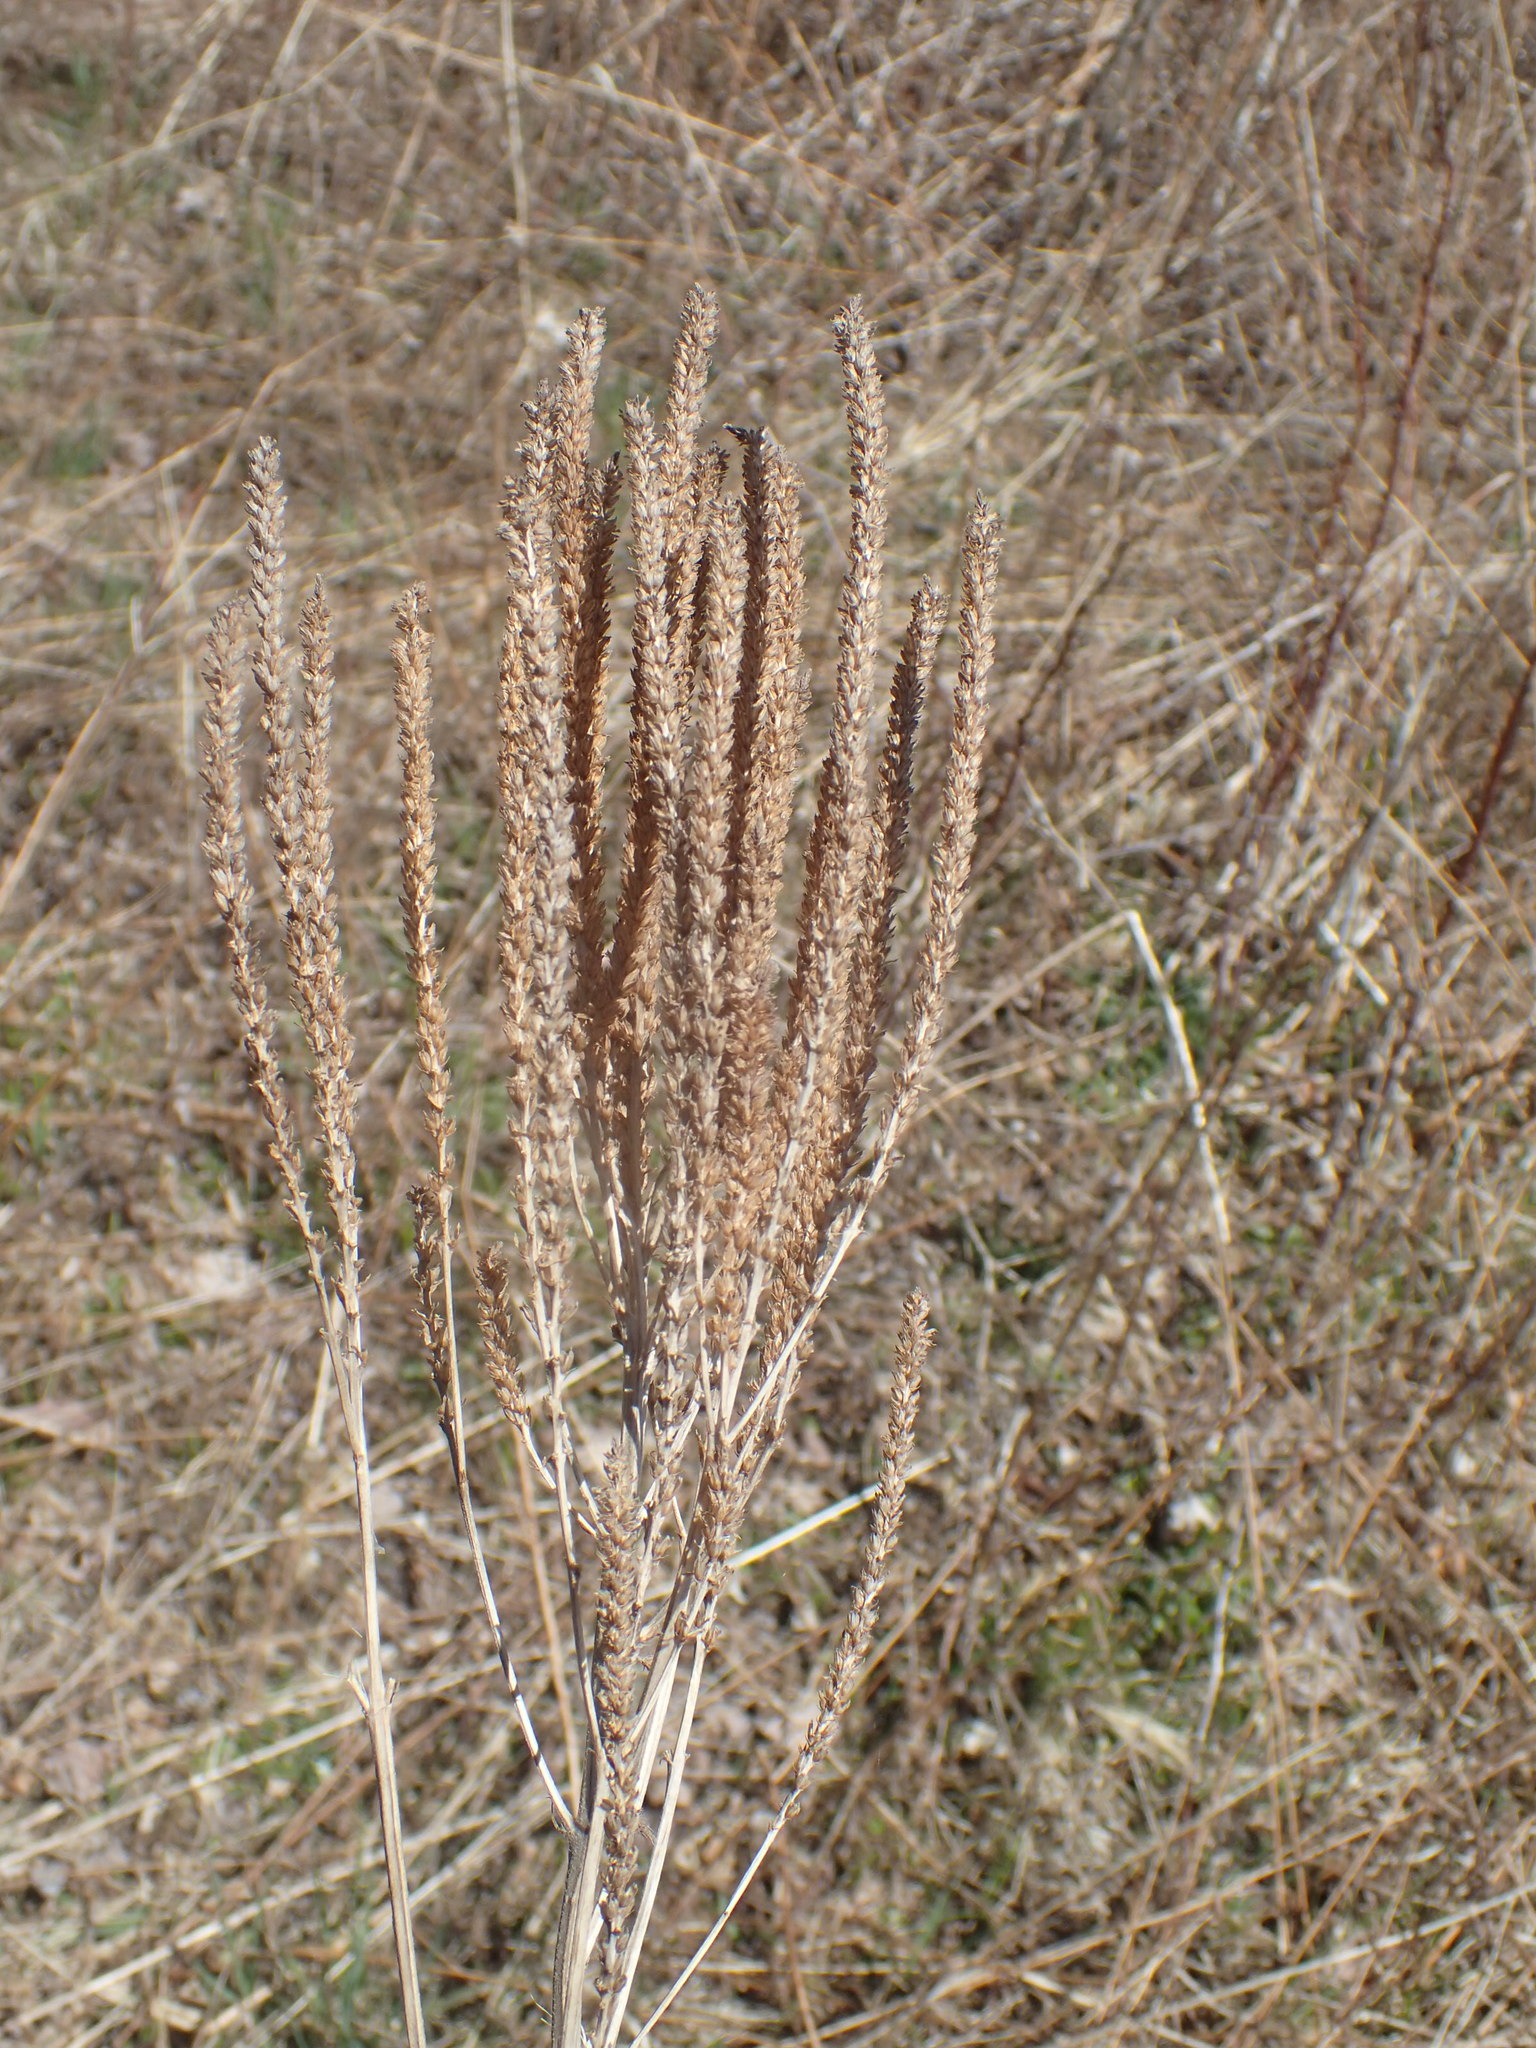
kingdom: Plantae
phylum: Tracheophyta
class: Magnoliopsida
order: Lamiales
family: Verbenaceae
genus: Verbena
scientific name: Verbena hastata
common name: American blue vervain
